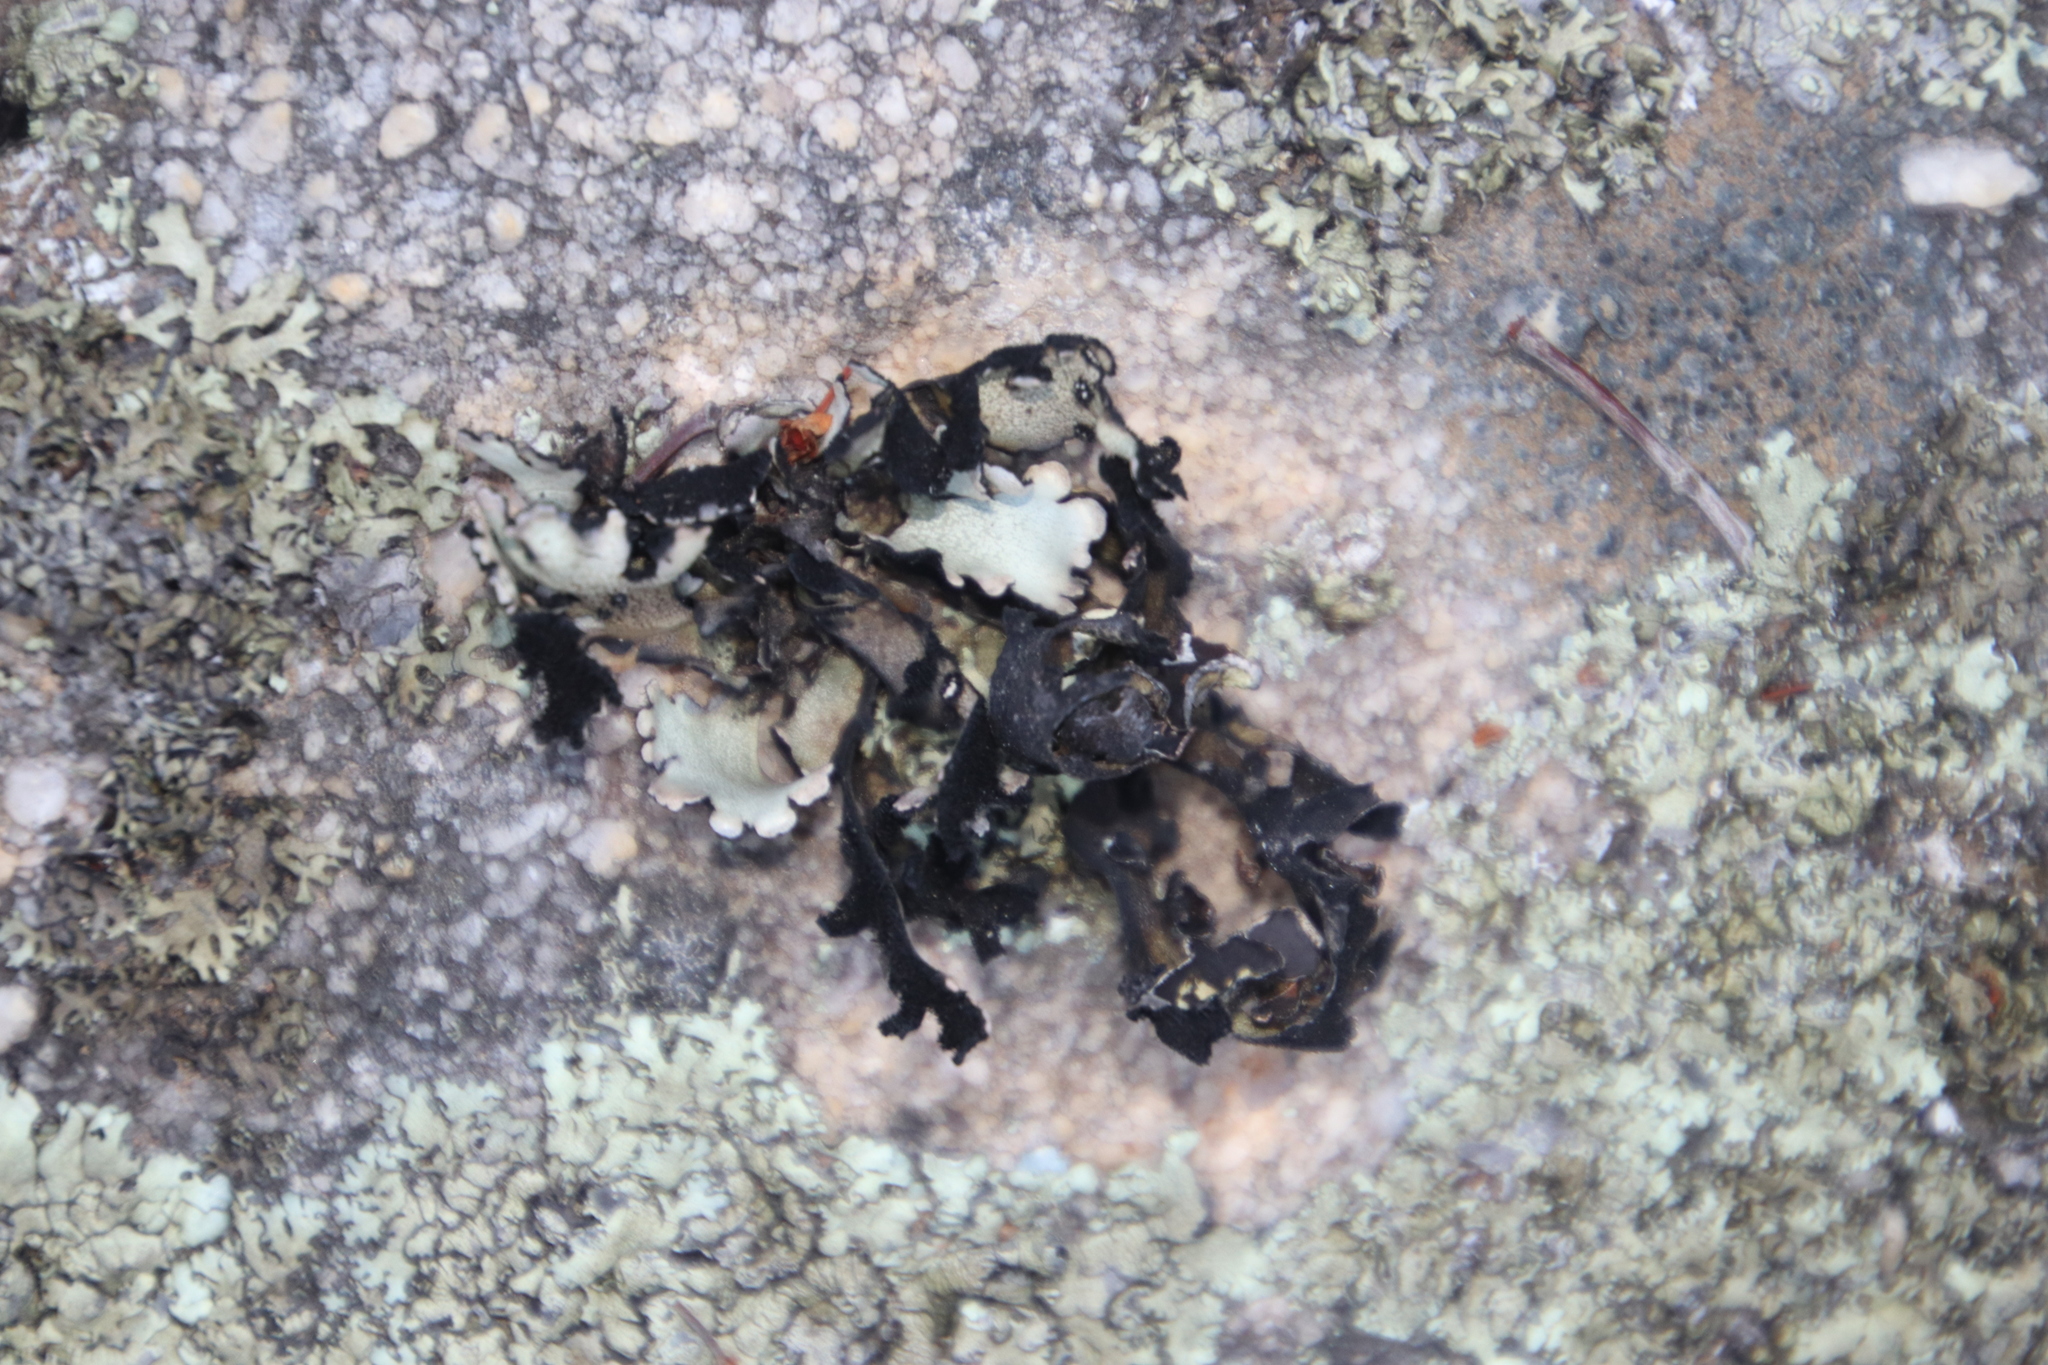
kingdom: Fungi
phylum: Ascomycota
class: Lecanoromycetes
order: Lecanorales
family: Parmeliaceae
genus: Xanthoparmelia
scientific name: Xanthoparmelia hottentotta
